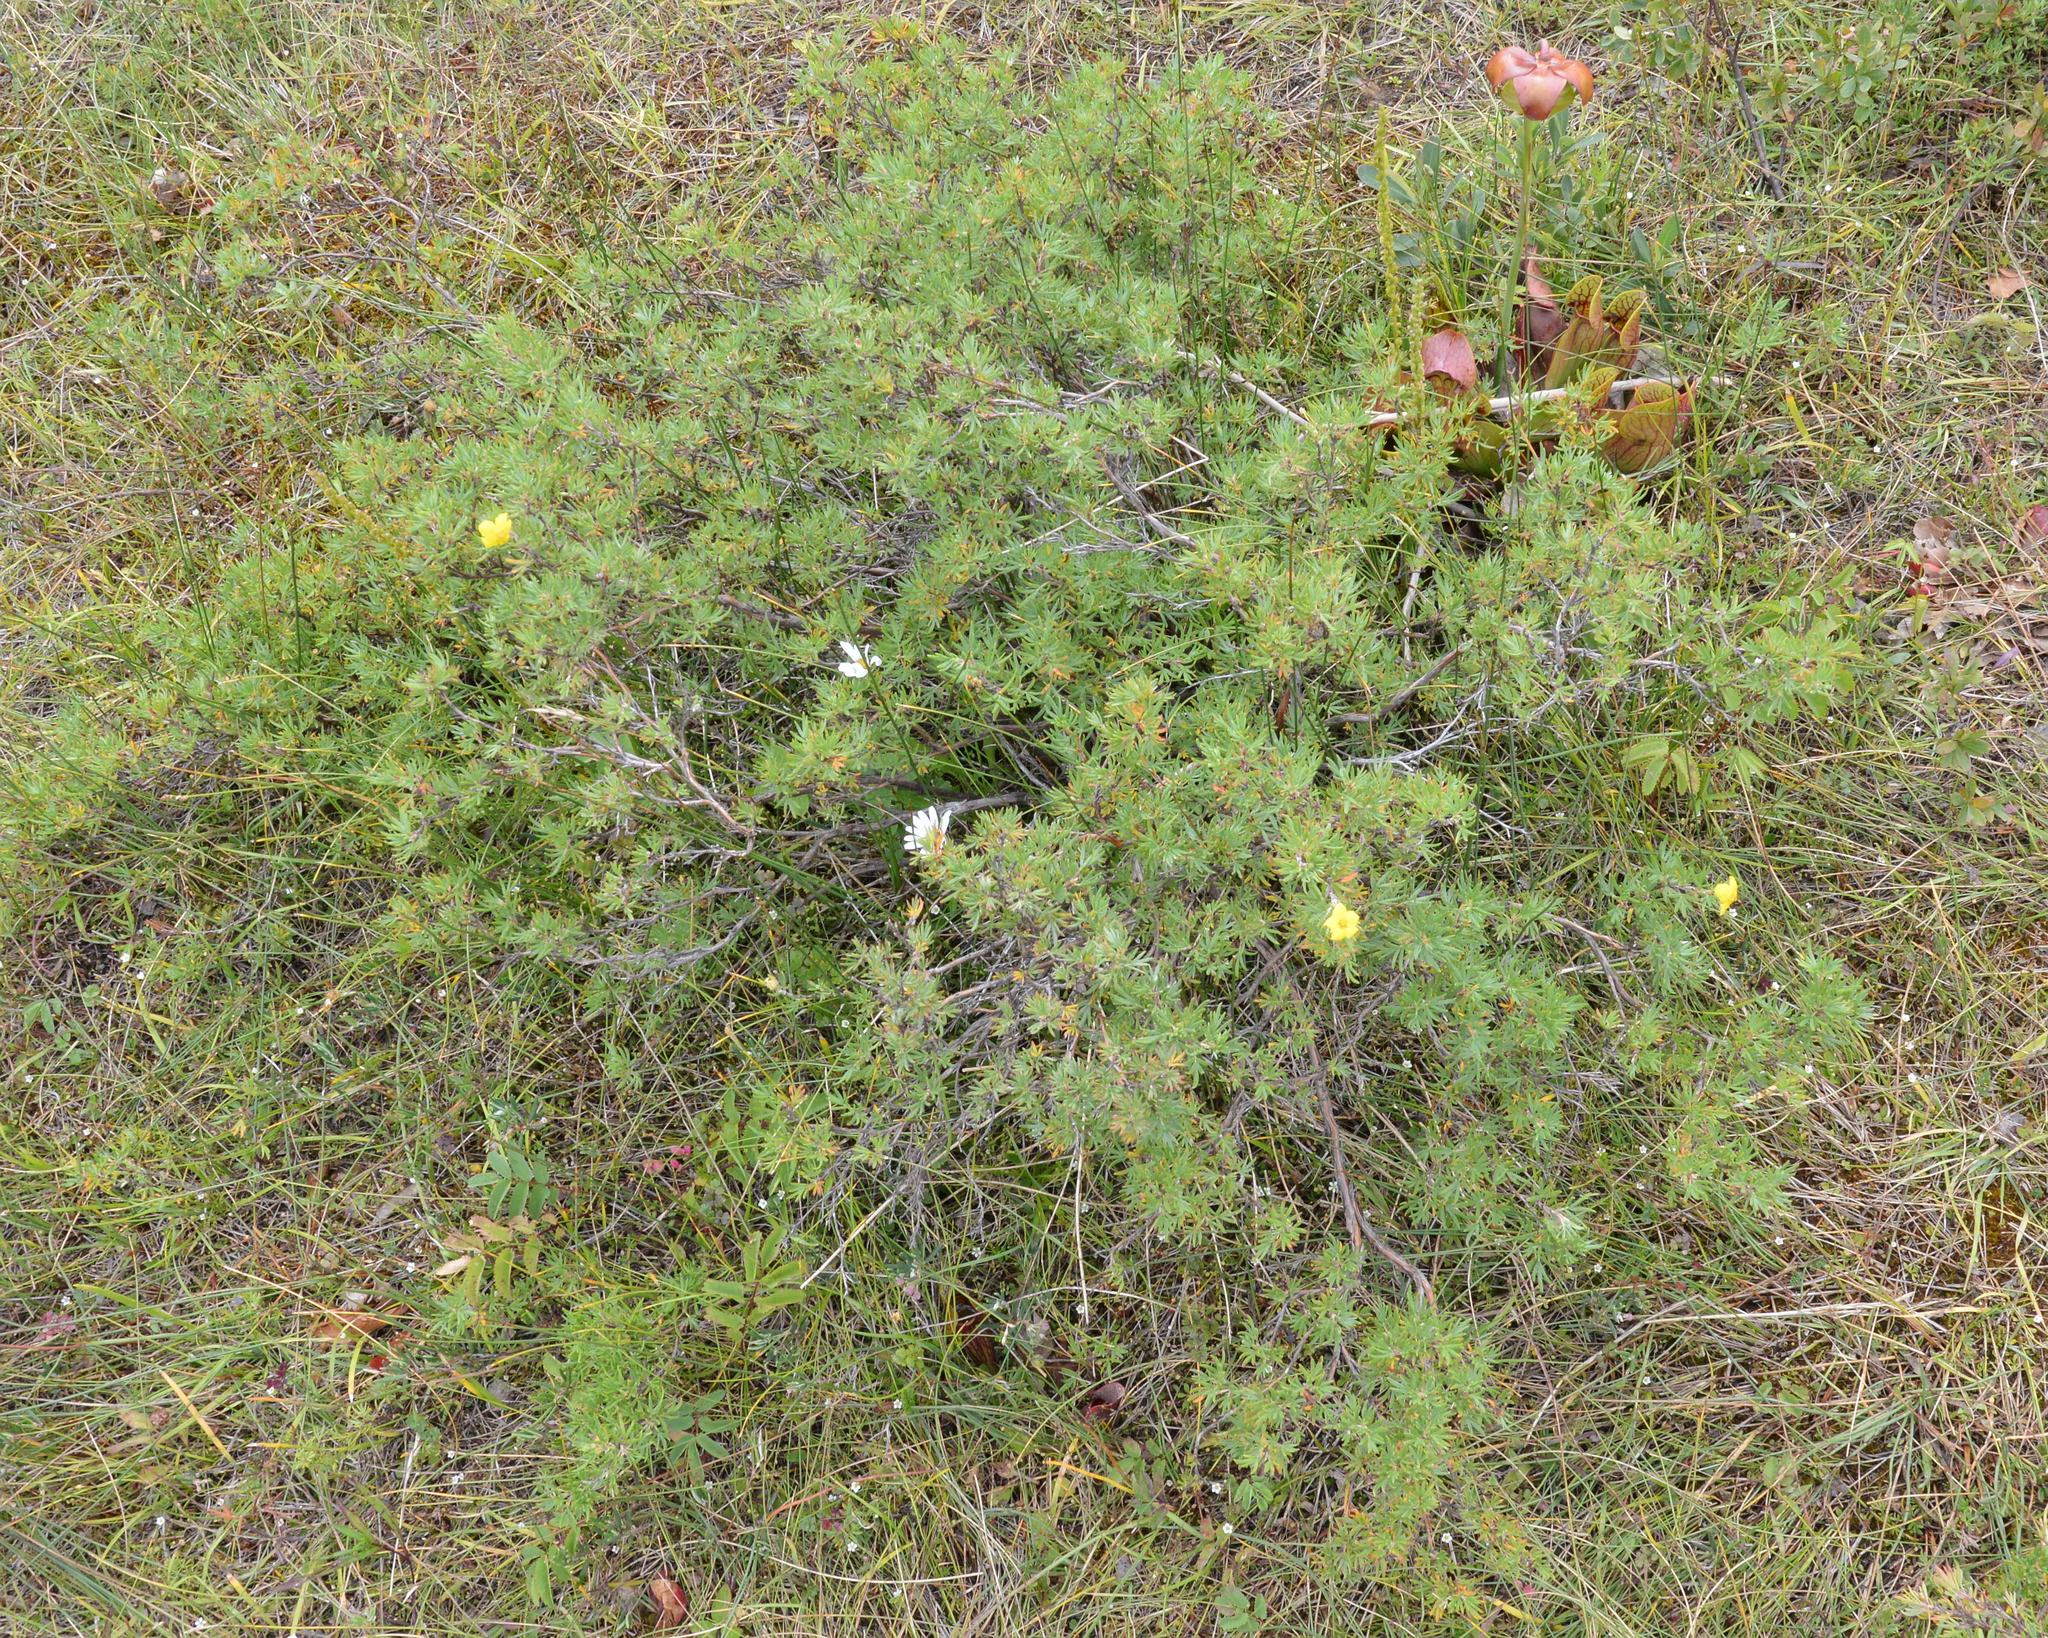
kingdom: Plantae
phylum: Tracheophyta
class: Magnoliopsida
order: Rosales
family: Rosaceae
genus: Dasiphora
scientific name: Dasiphora fruticosa
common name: Shrubby cinquefoil
